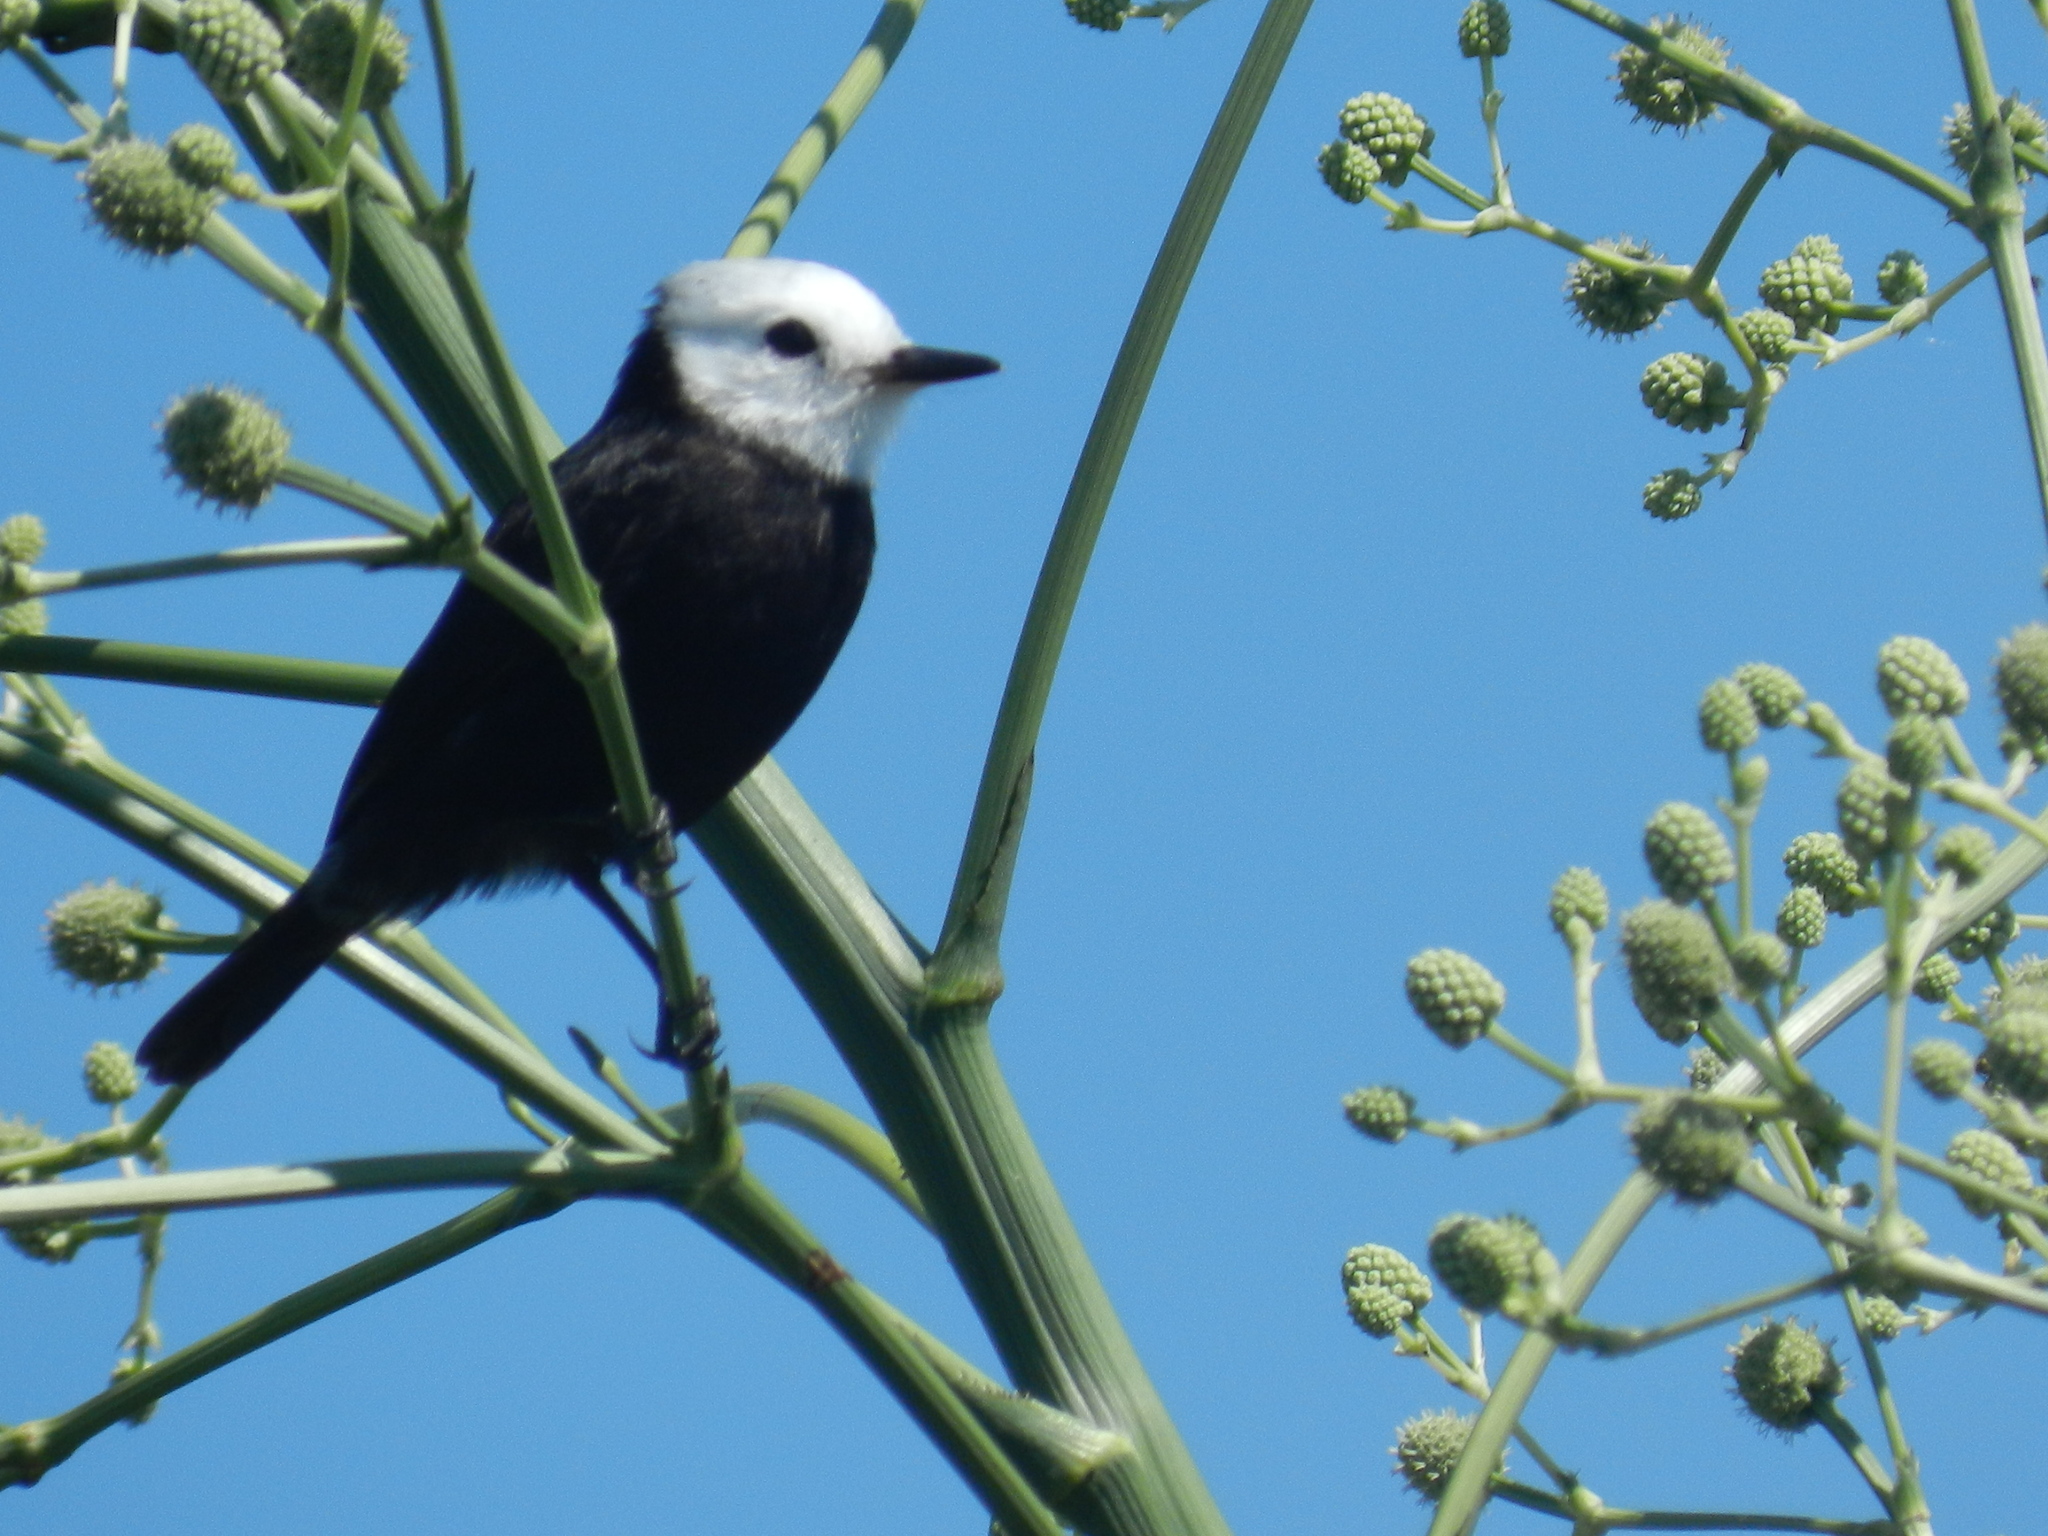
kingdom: Animalia
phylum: Chordata
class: Aves
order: Passeriformes
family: Tyrannidae
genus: Arundinicola
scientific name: Arundinicola leucocephala
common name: White-headed marsh tyrant
